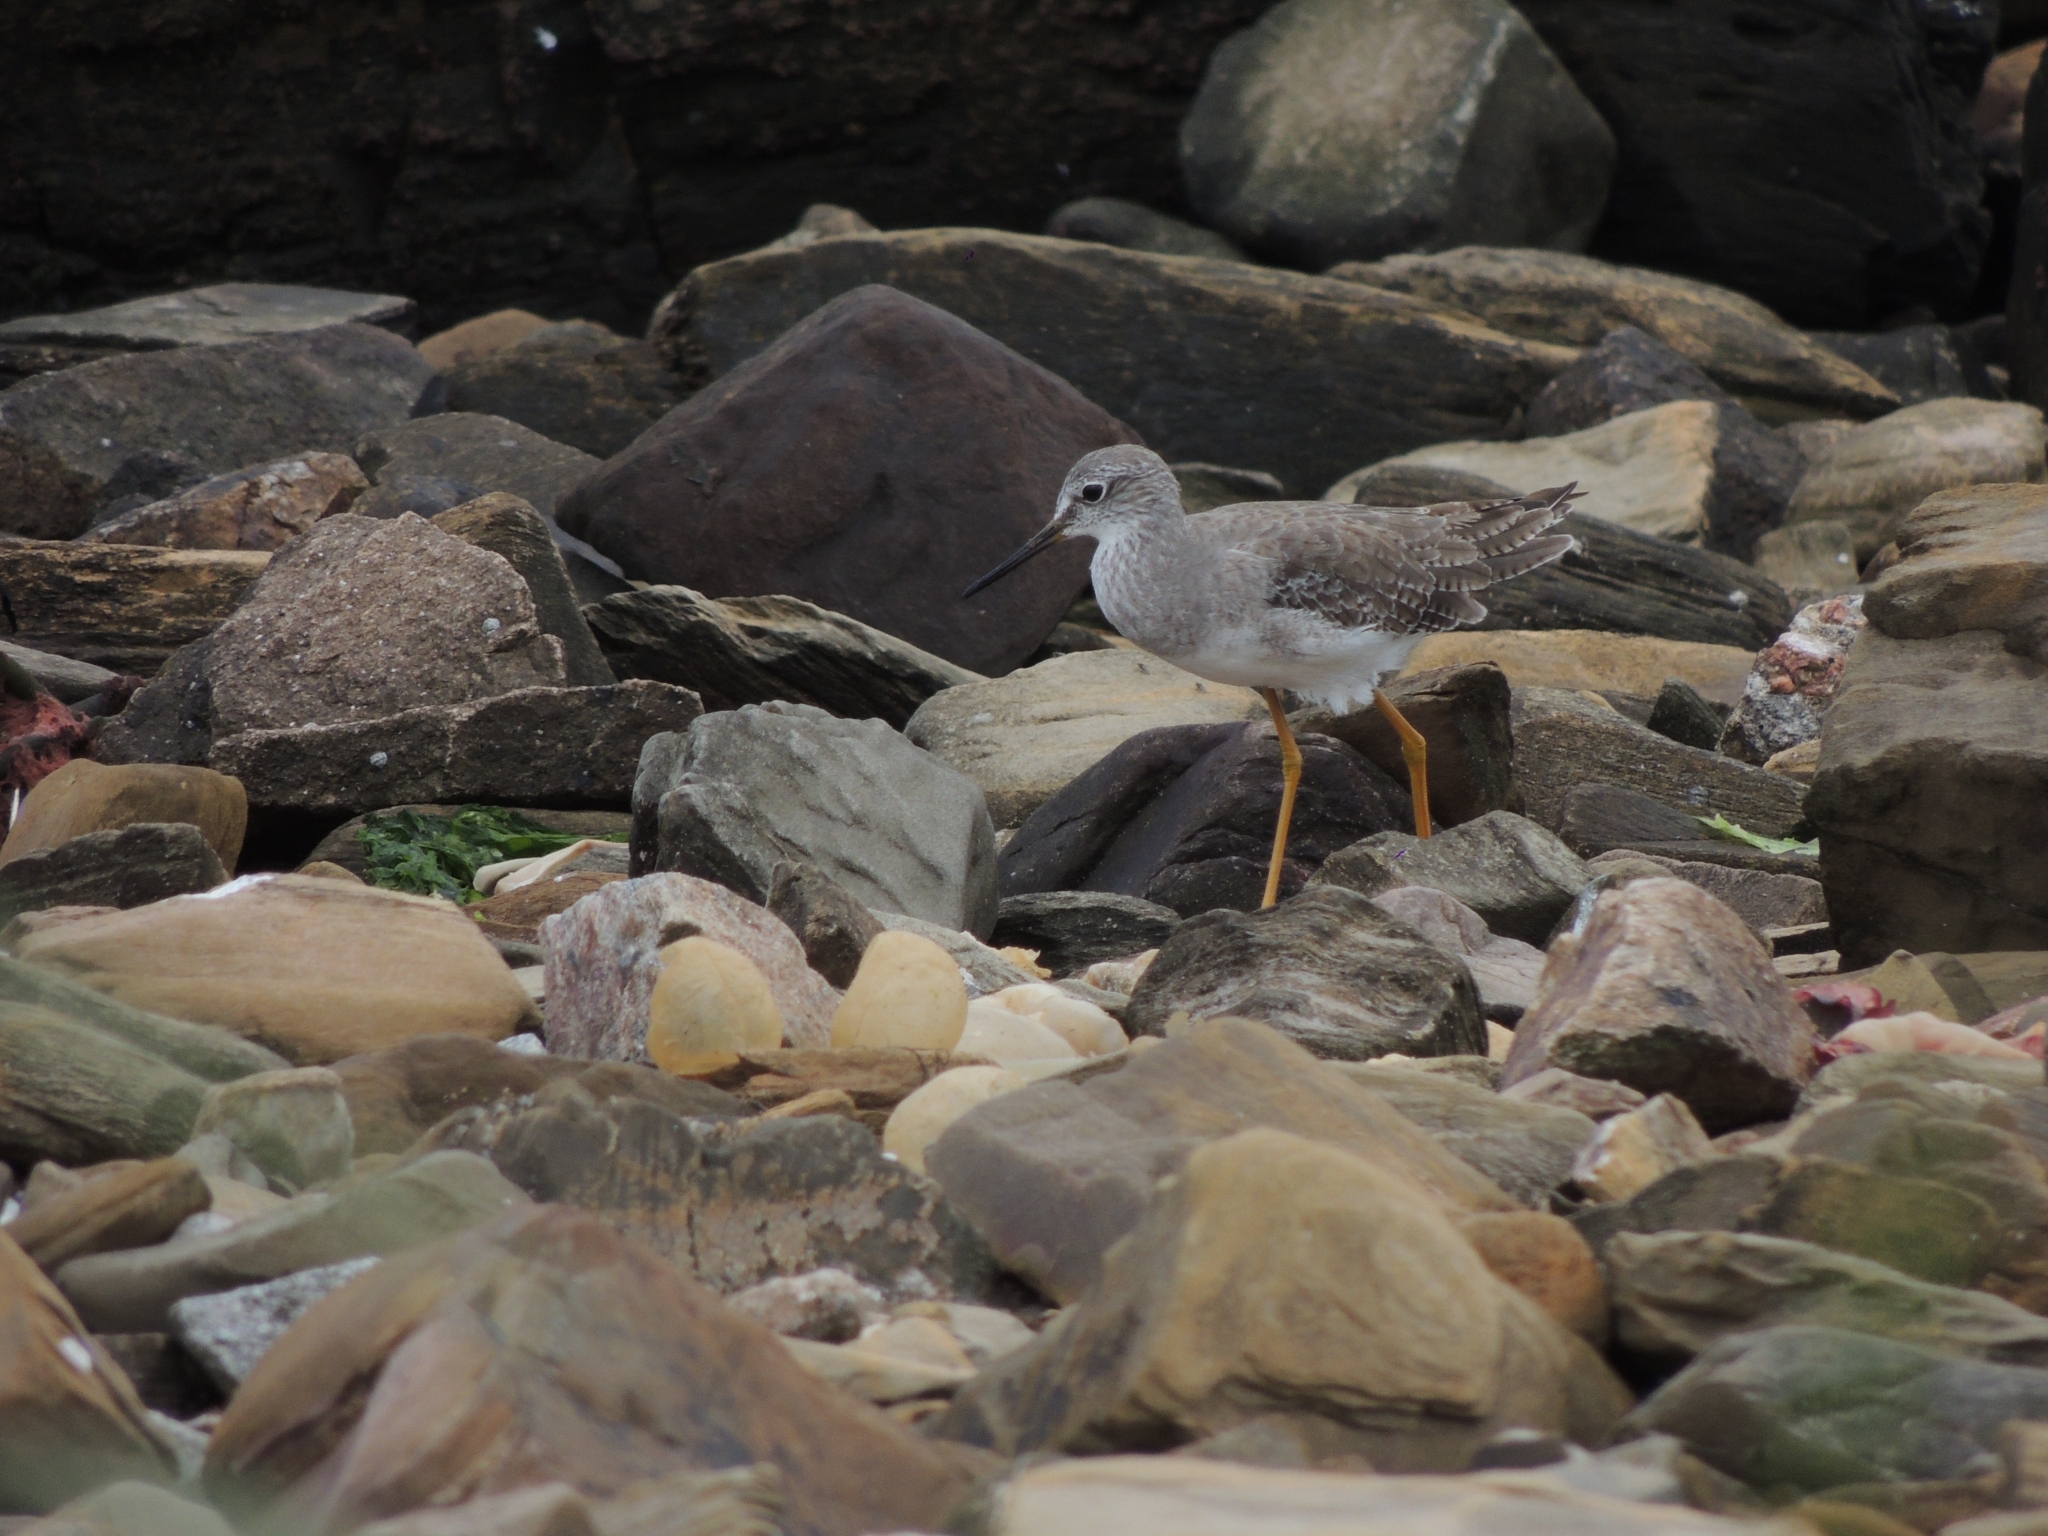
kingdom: Animalia
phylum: Chordata
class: Aves
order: Charadriiformes
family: Scolopacidae
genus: Tringa
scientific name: Tringa flavipes
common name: Lesser yellowlegs
